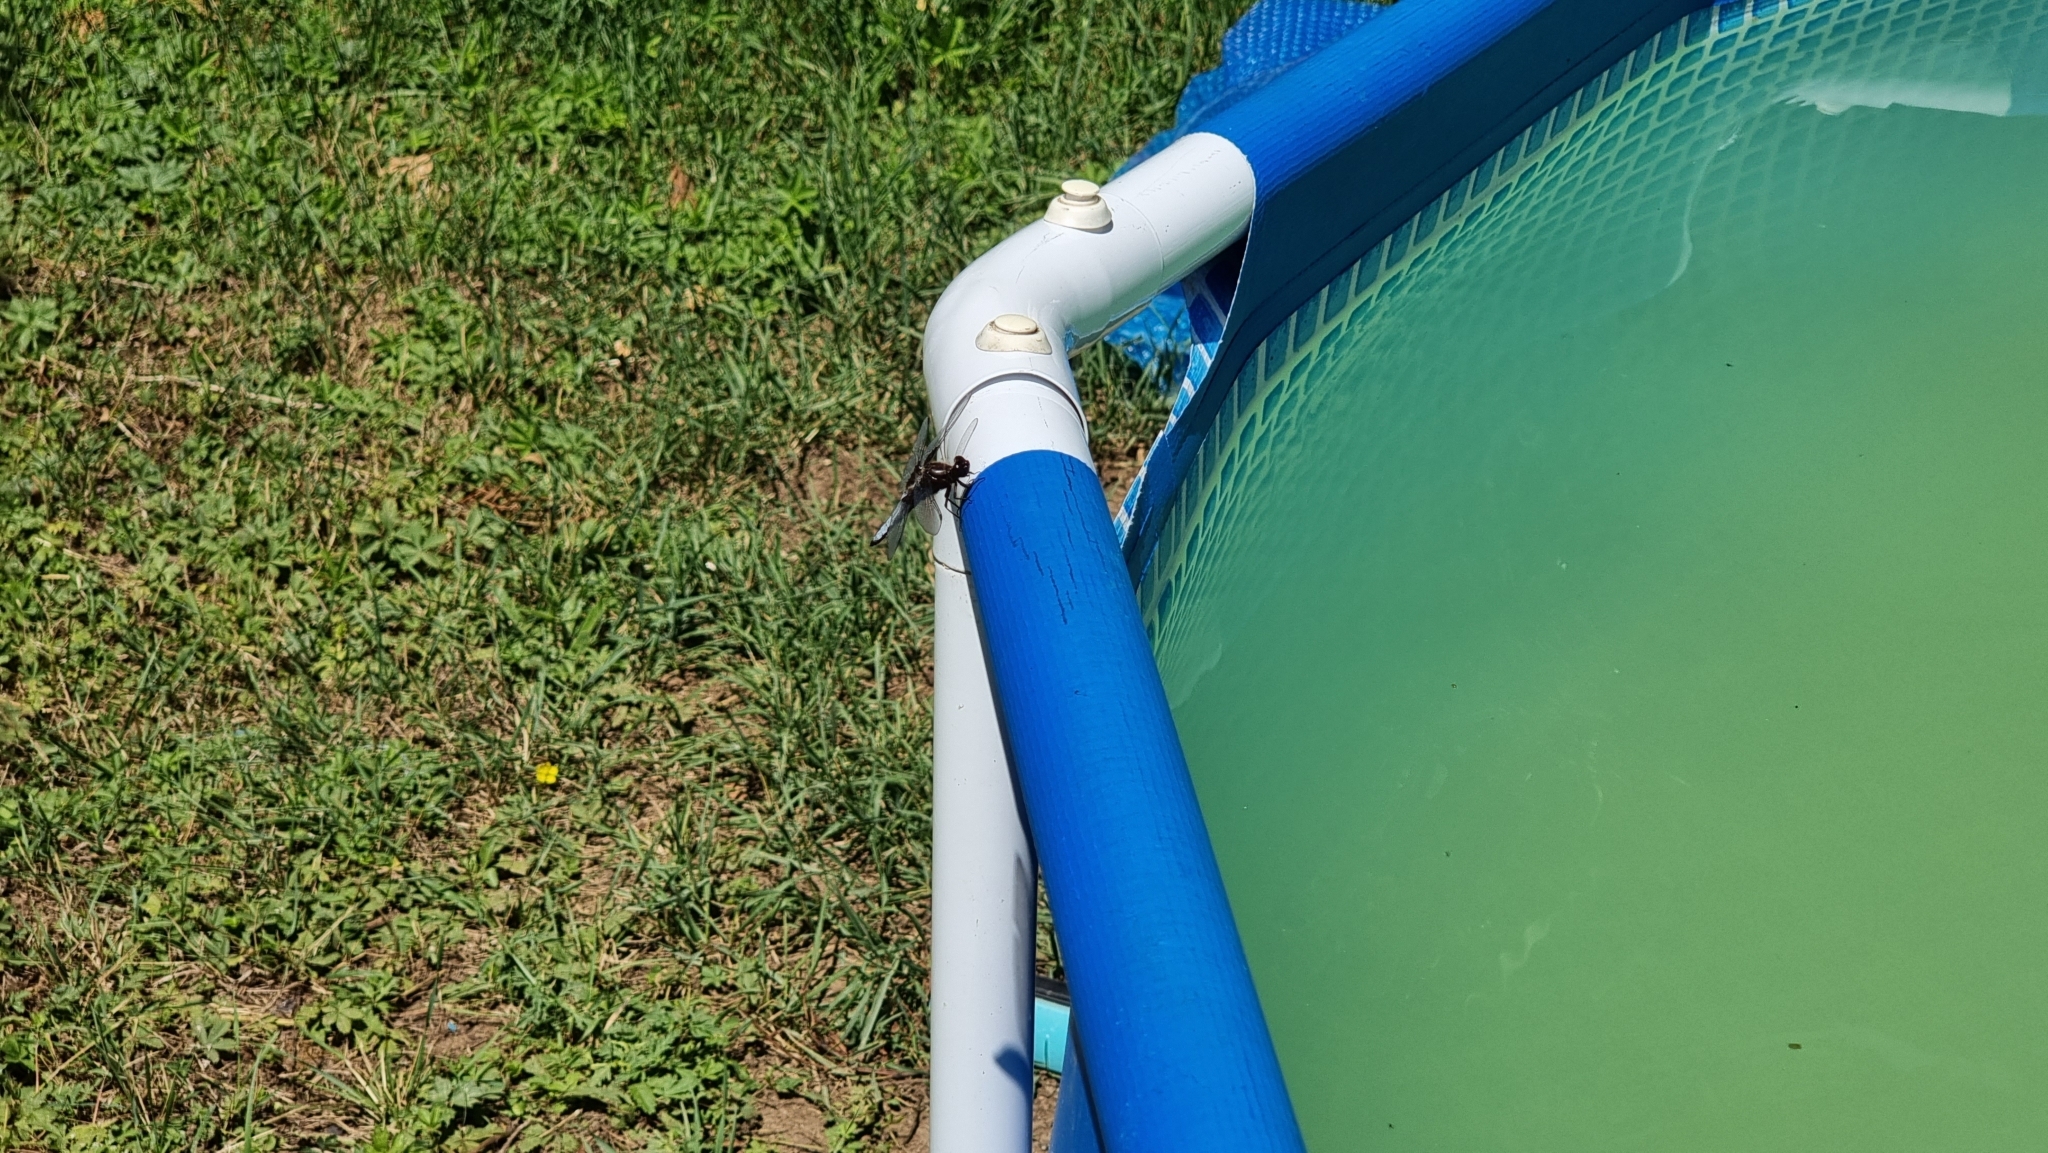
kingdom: Animalia
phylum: Arthropoda
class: Insecta
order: Odonata
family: Libellulidae
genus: Libellula
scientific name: Libellula depressa
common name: Broad-bodied chaser
